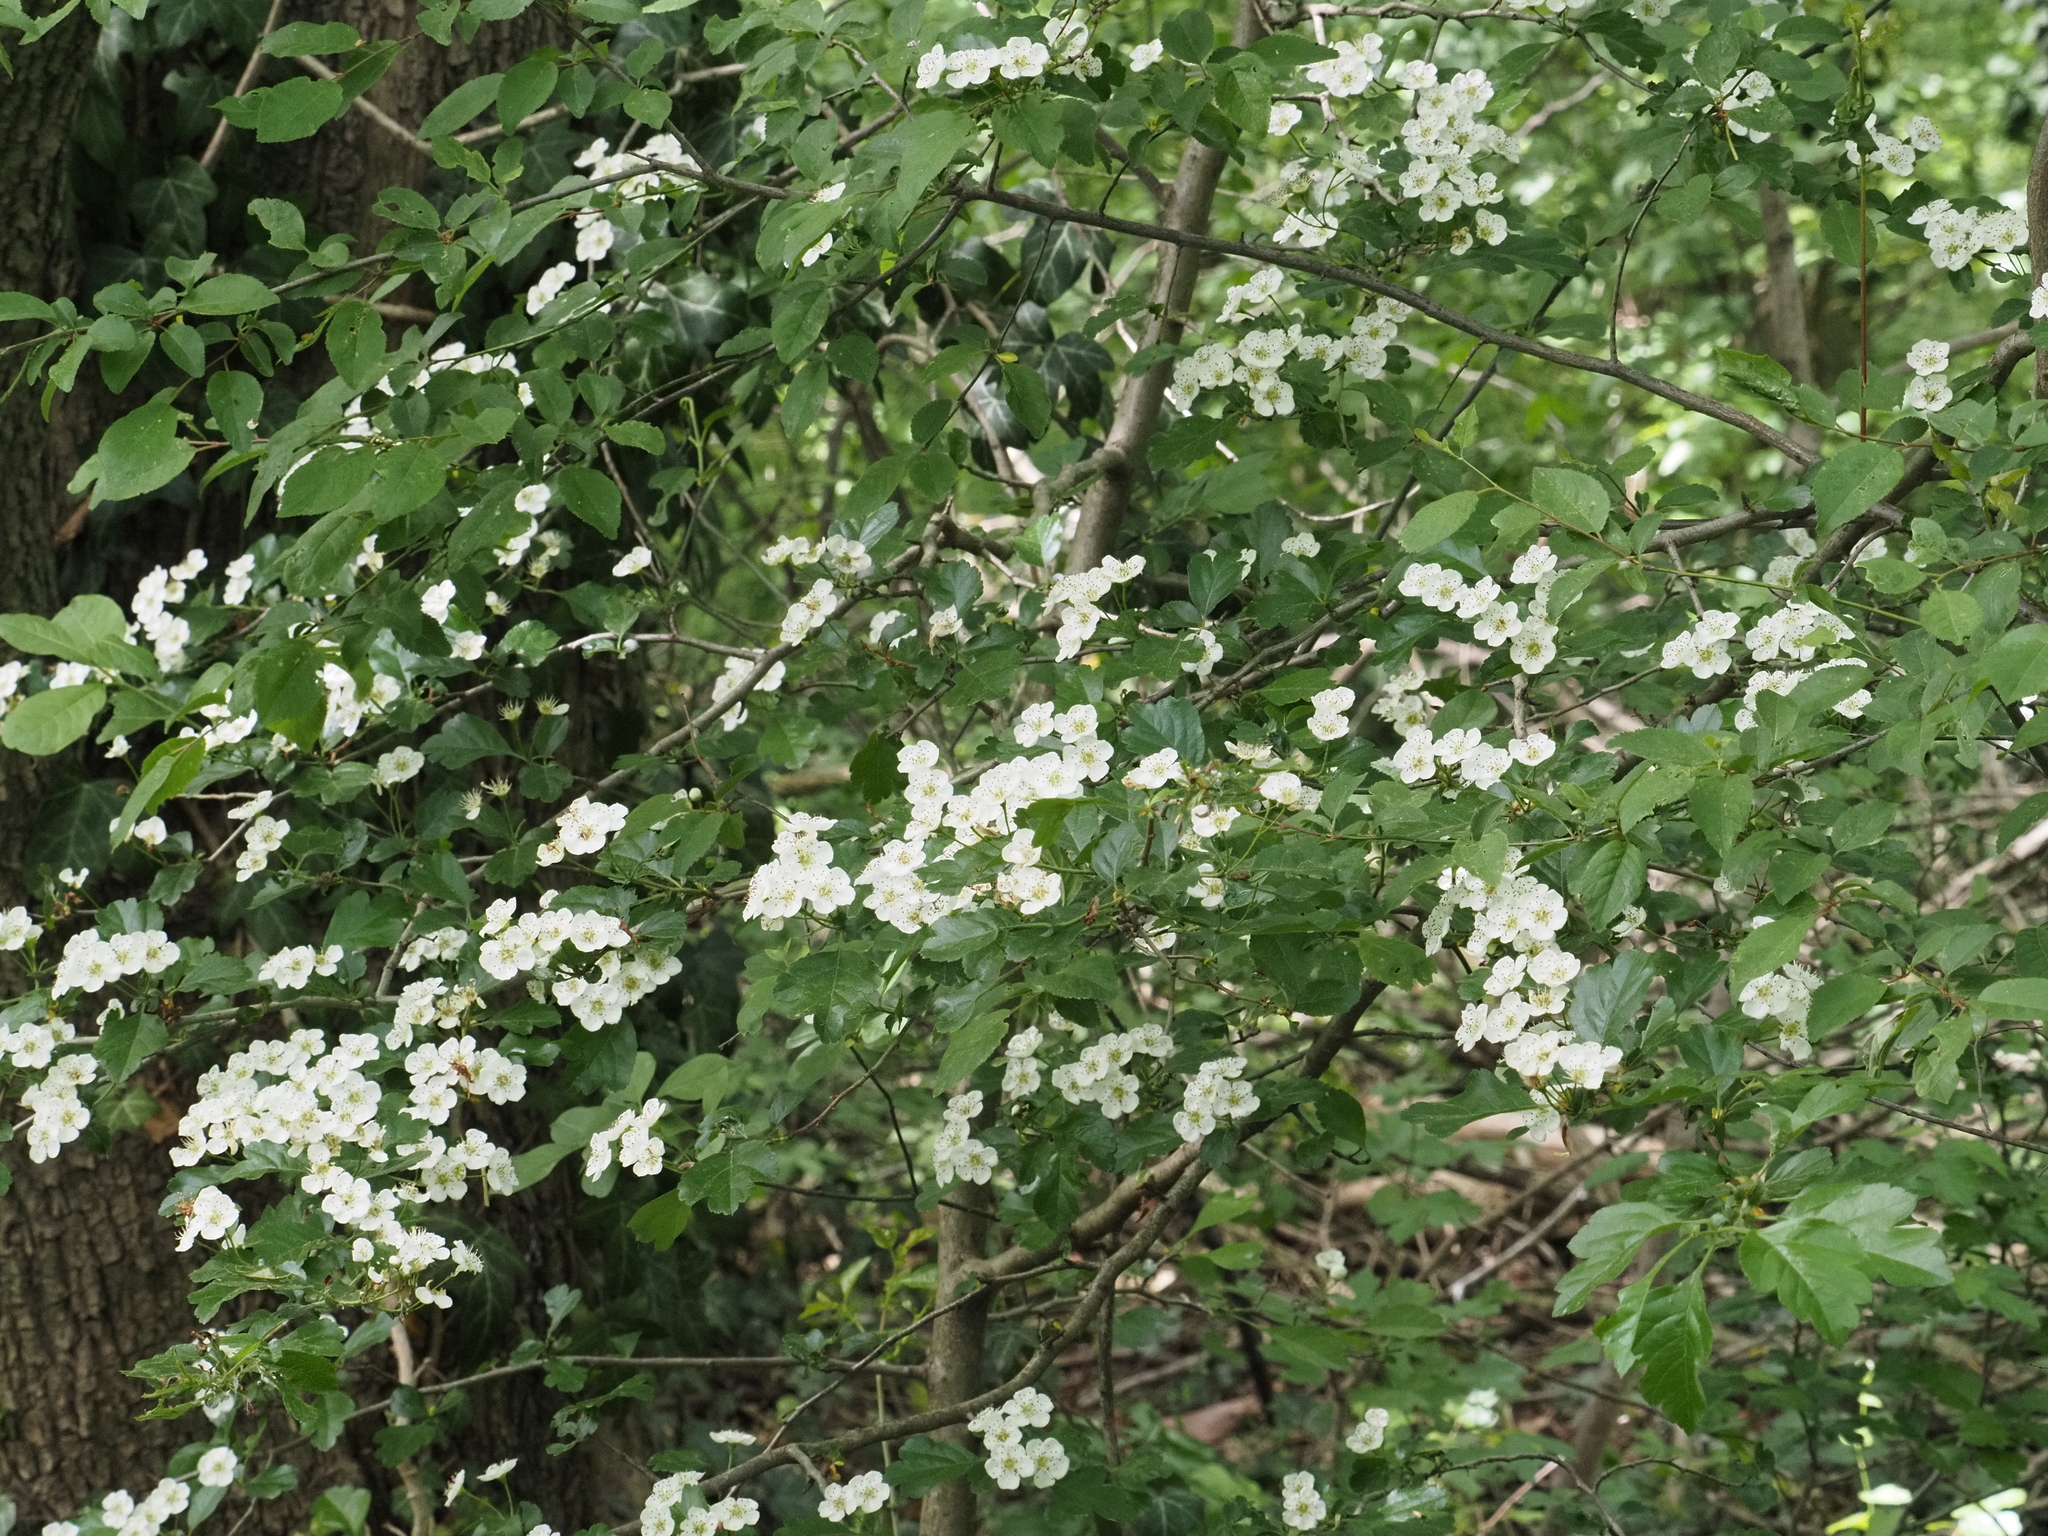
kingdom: Plantae
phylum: Tracheophyta
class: Magnoliopsida
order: Rosales
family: Rosaceae
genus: Crataegus
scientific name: Crataegus laevigata
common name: Midland hawthorn
